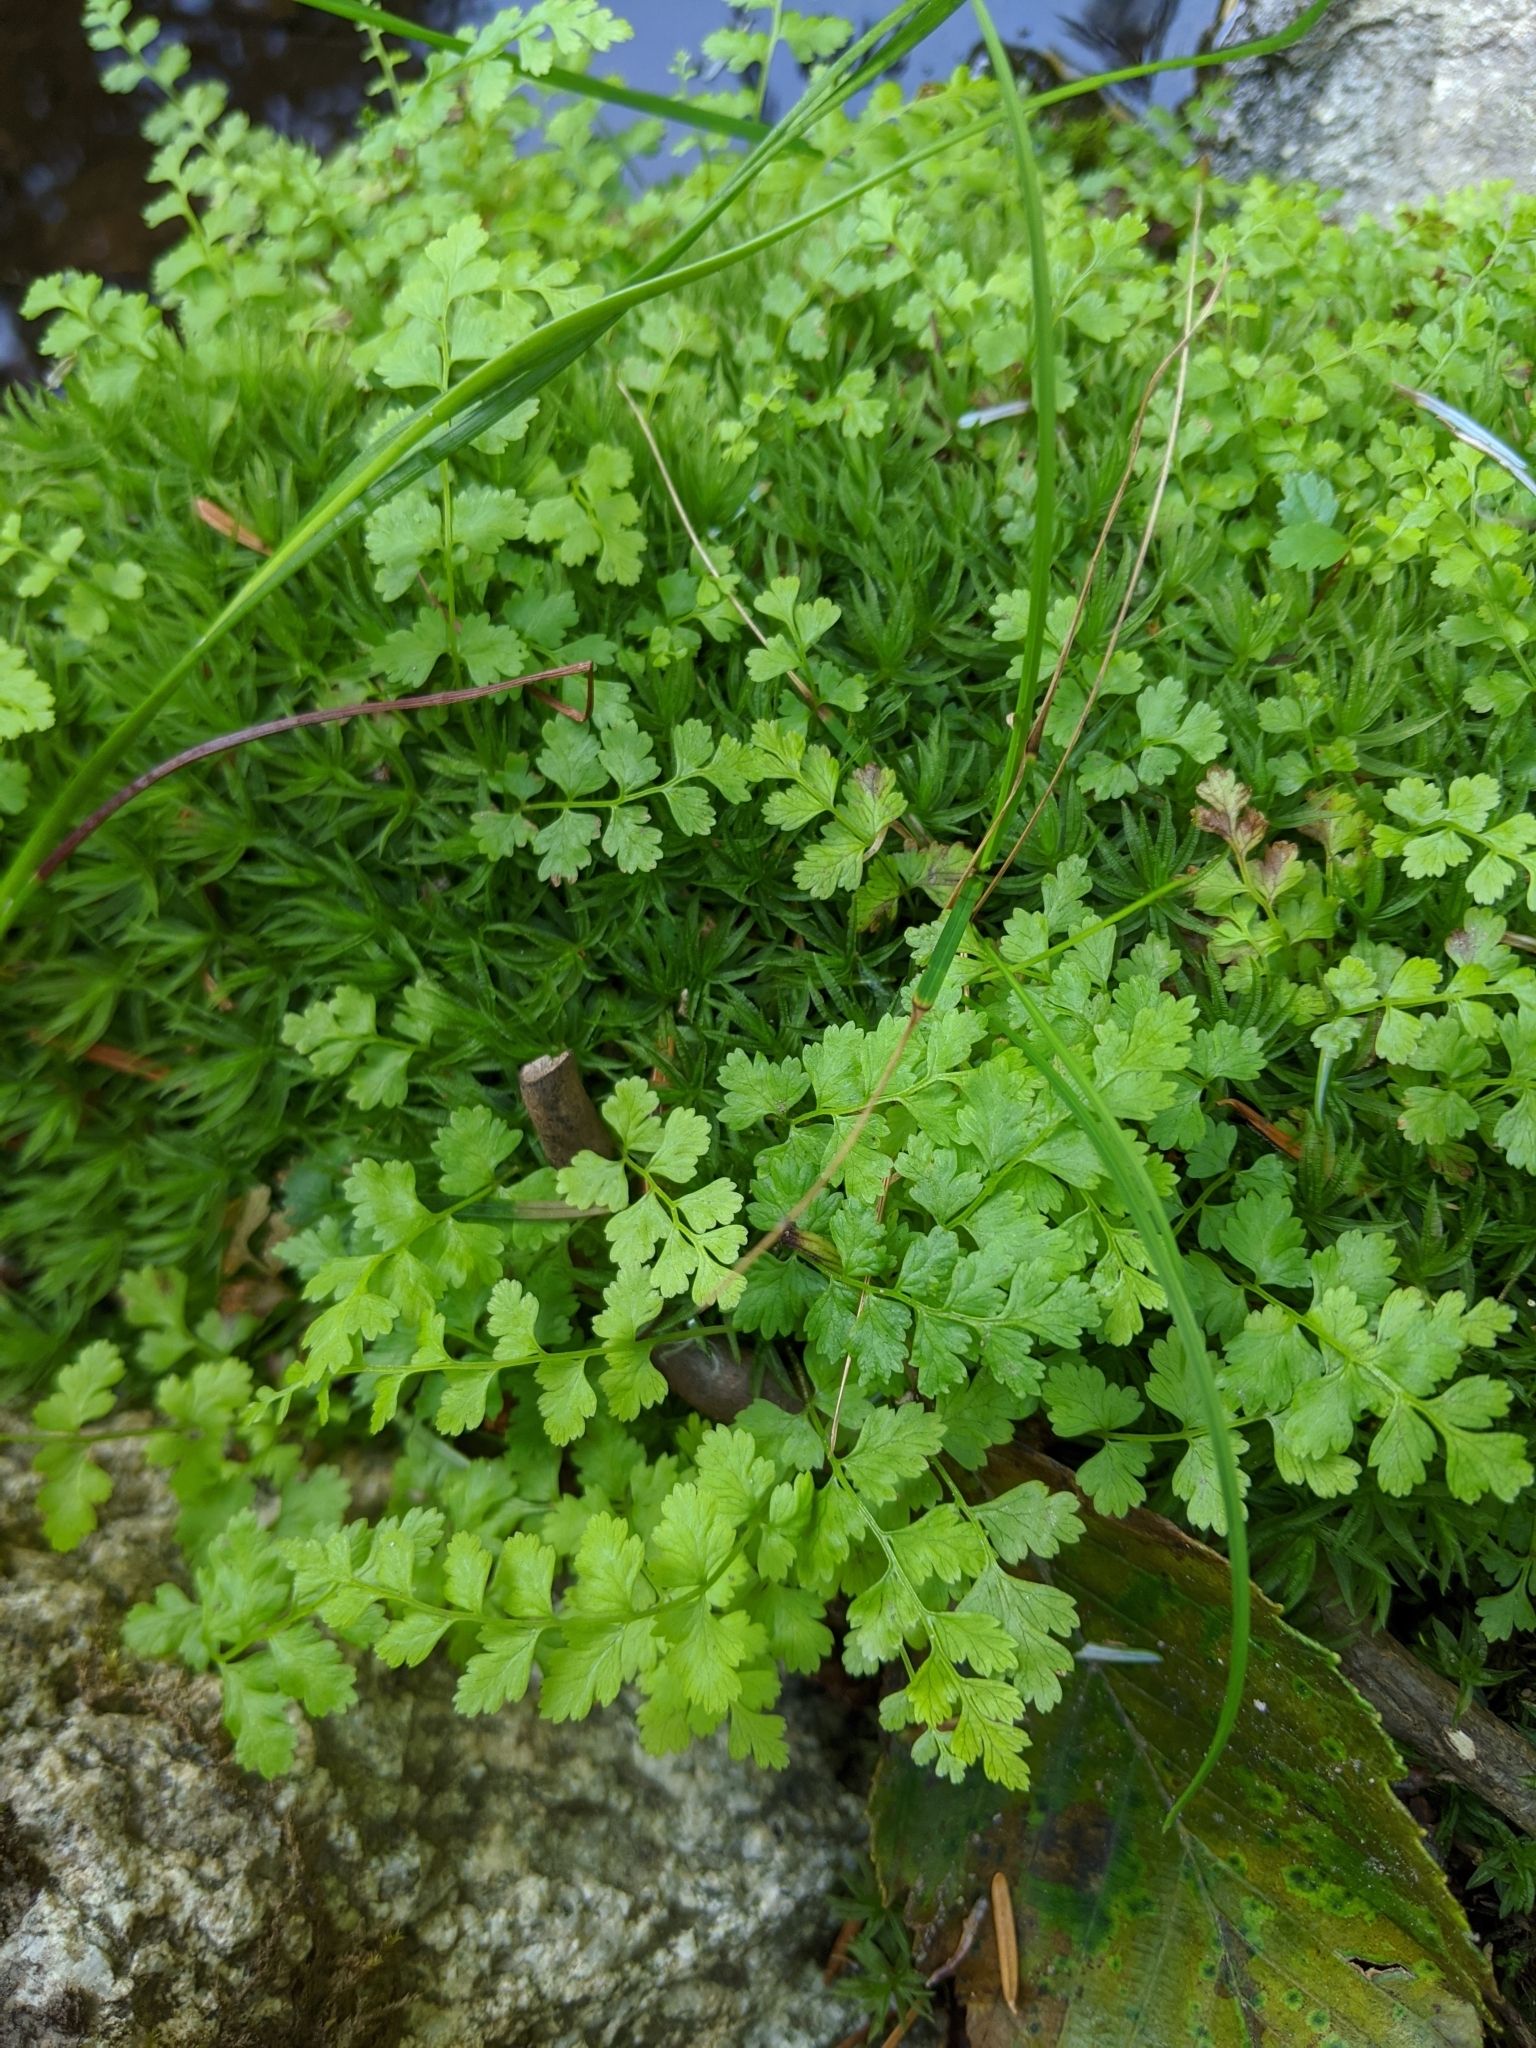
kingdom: Plantae
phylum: Tracheophyta
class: Polypodiopsida
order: Polypodiales
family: Athyriaceae
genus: Athyrium
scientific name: Athyrium filix-femina
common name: Lady fern
